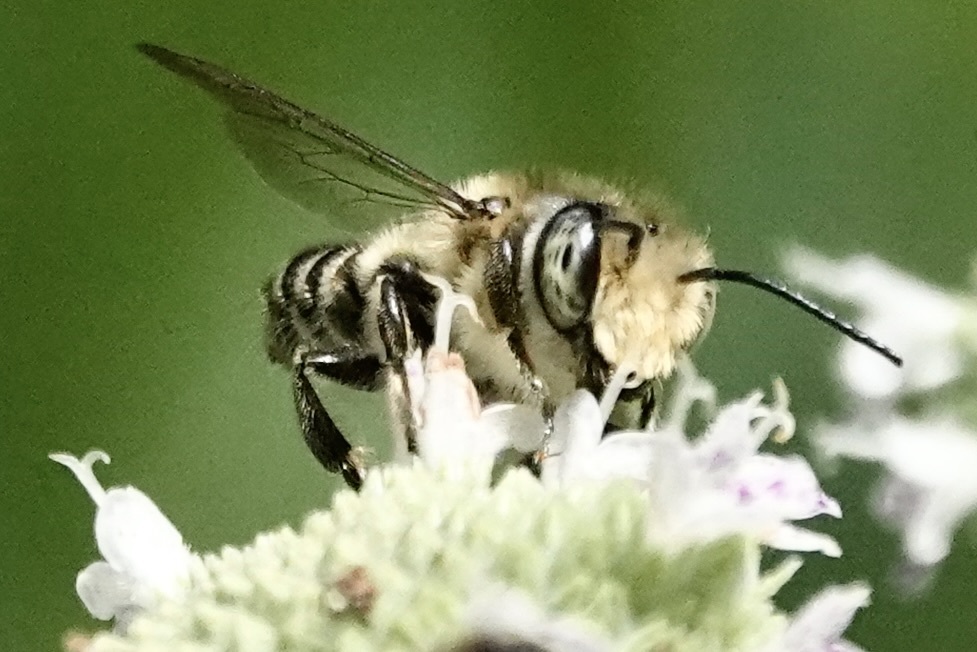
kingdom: Animalia
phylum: Arthropoda
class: Insecta
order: Hymenoptera
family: Megachilidae
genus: Megachile
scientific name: Megachile mendica
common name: Flat-tailed leafcutter
